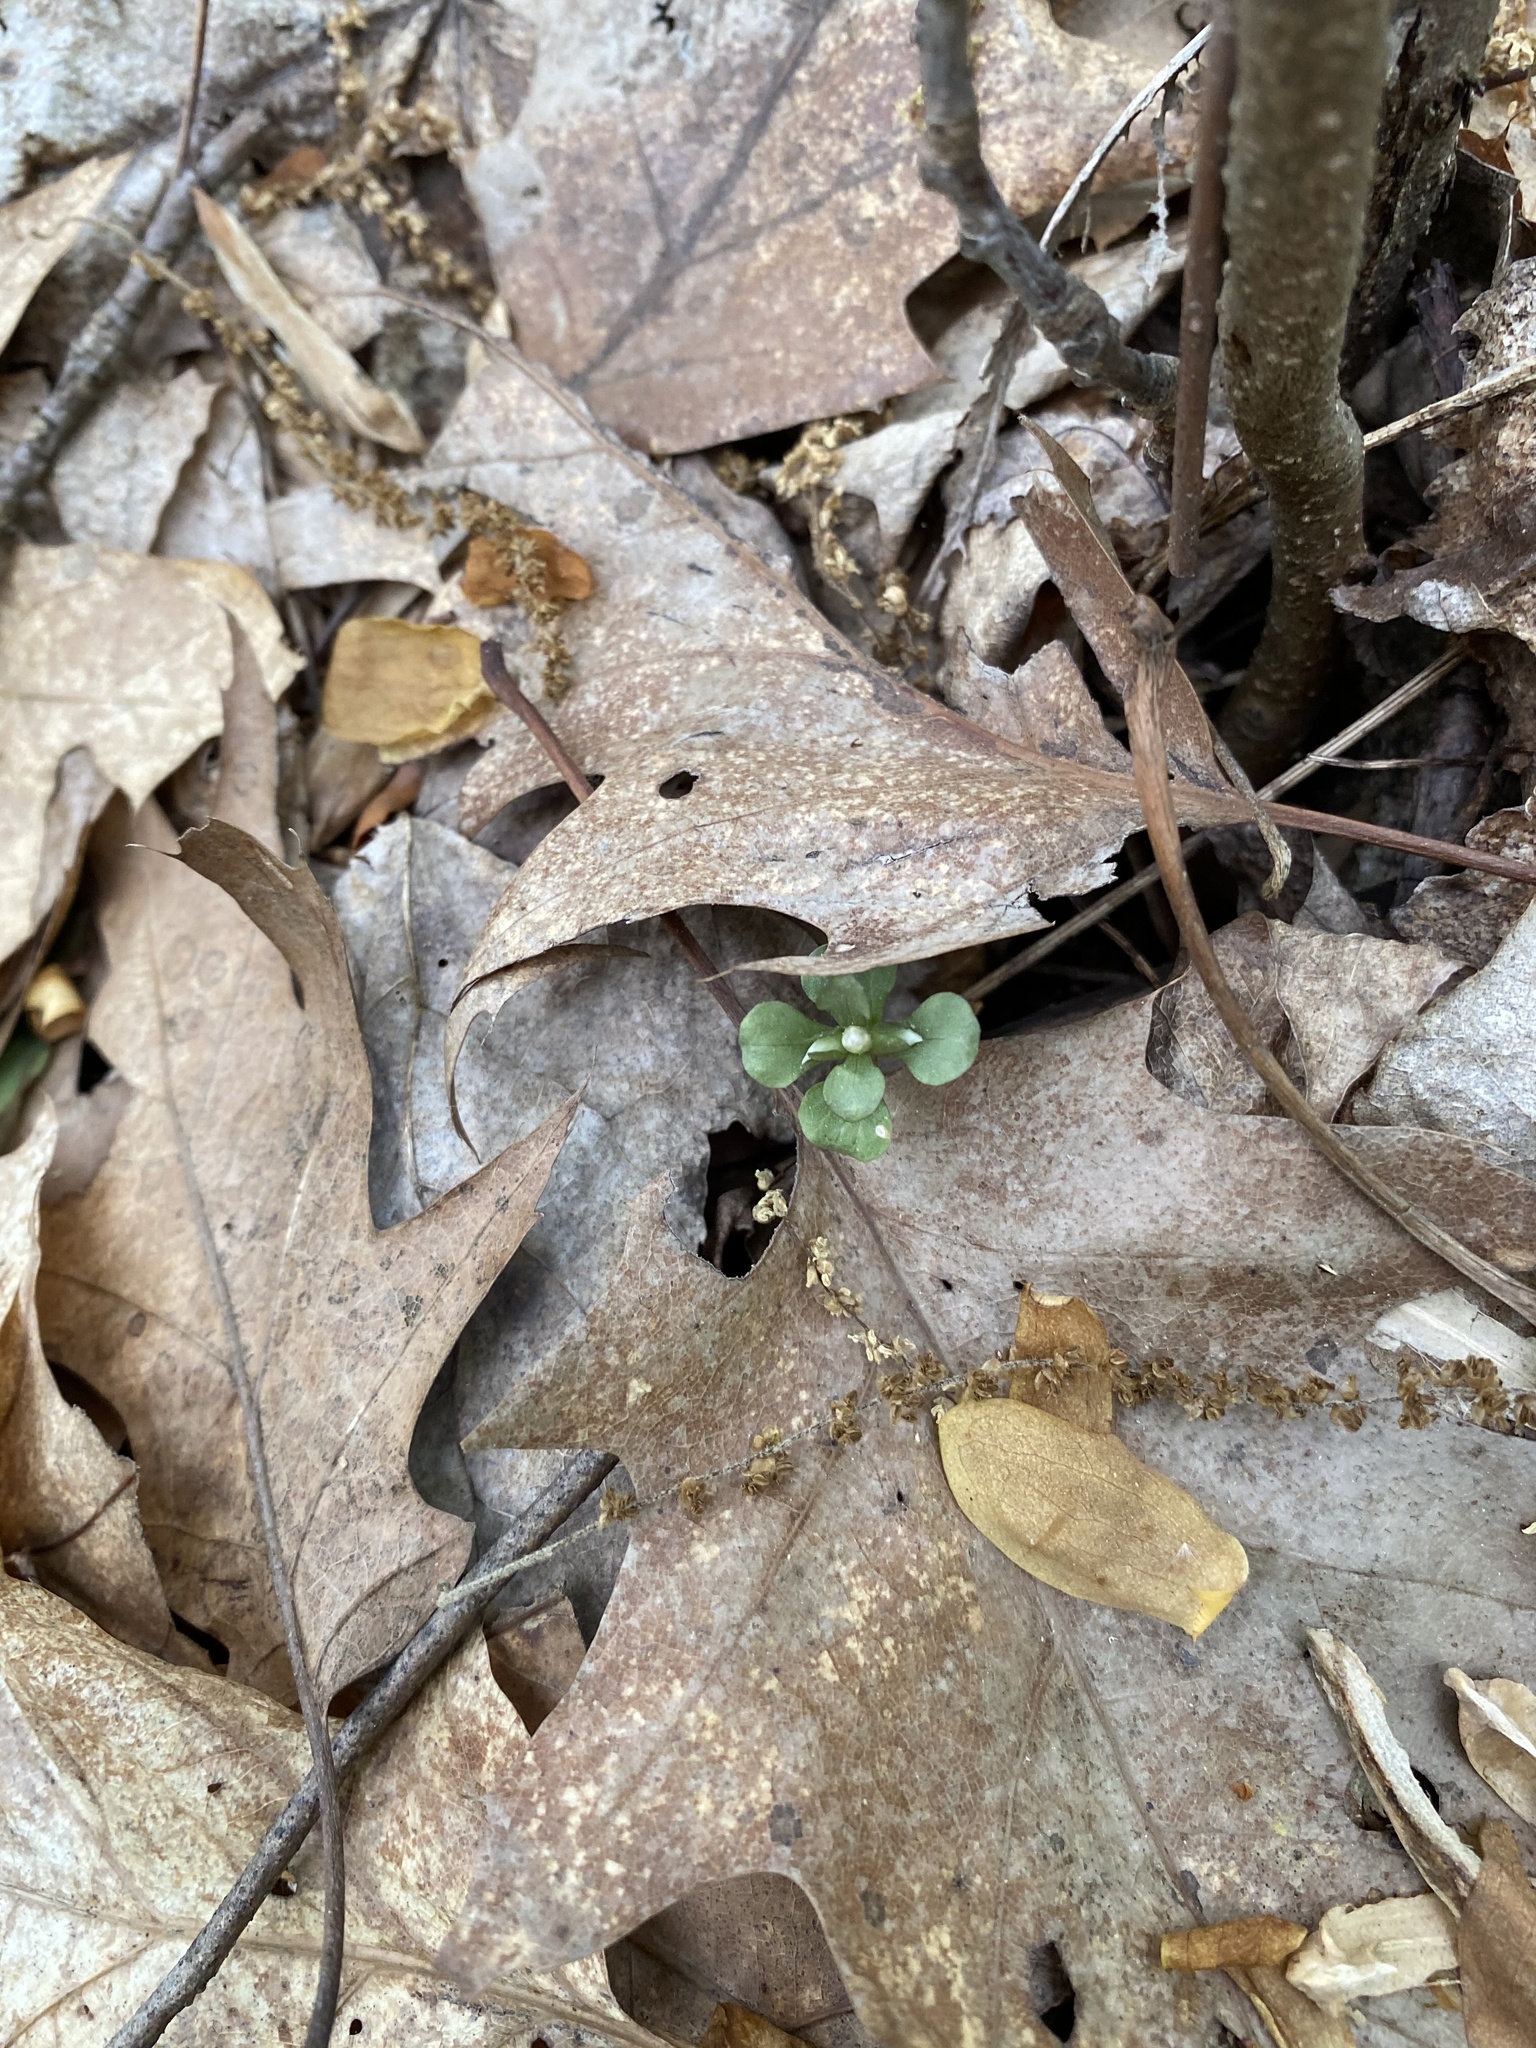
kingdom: Plantae
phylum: Tracheophyta
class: Magnoliopsida
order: Gentianales
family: Gentianaceae
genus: Obolaria
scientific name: Obolaria virginica
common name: Pennywort
